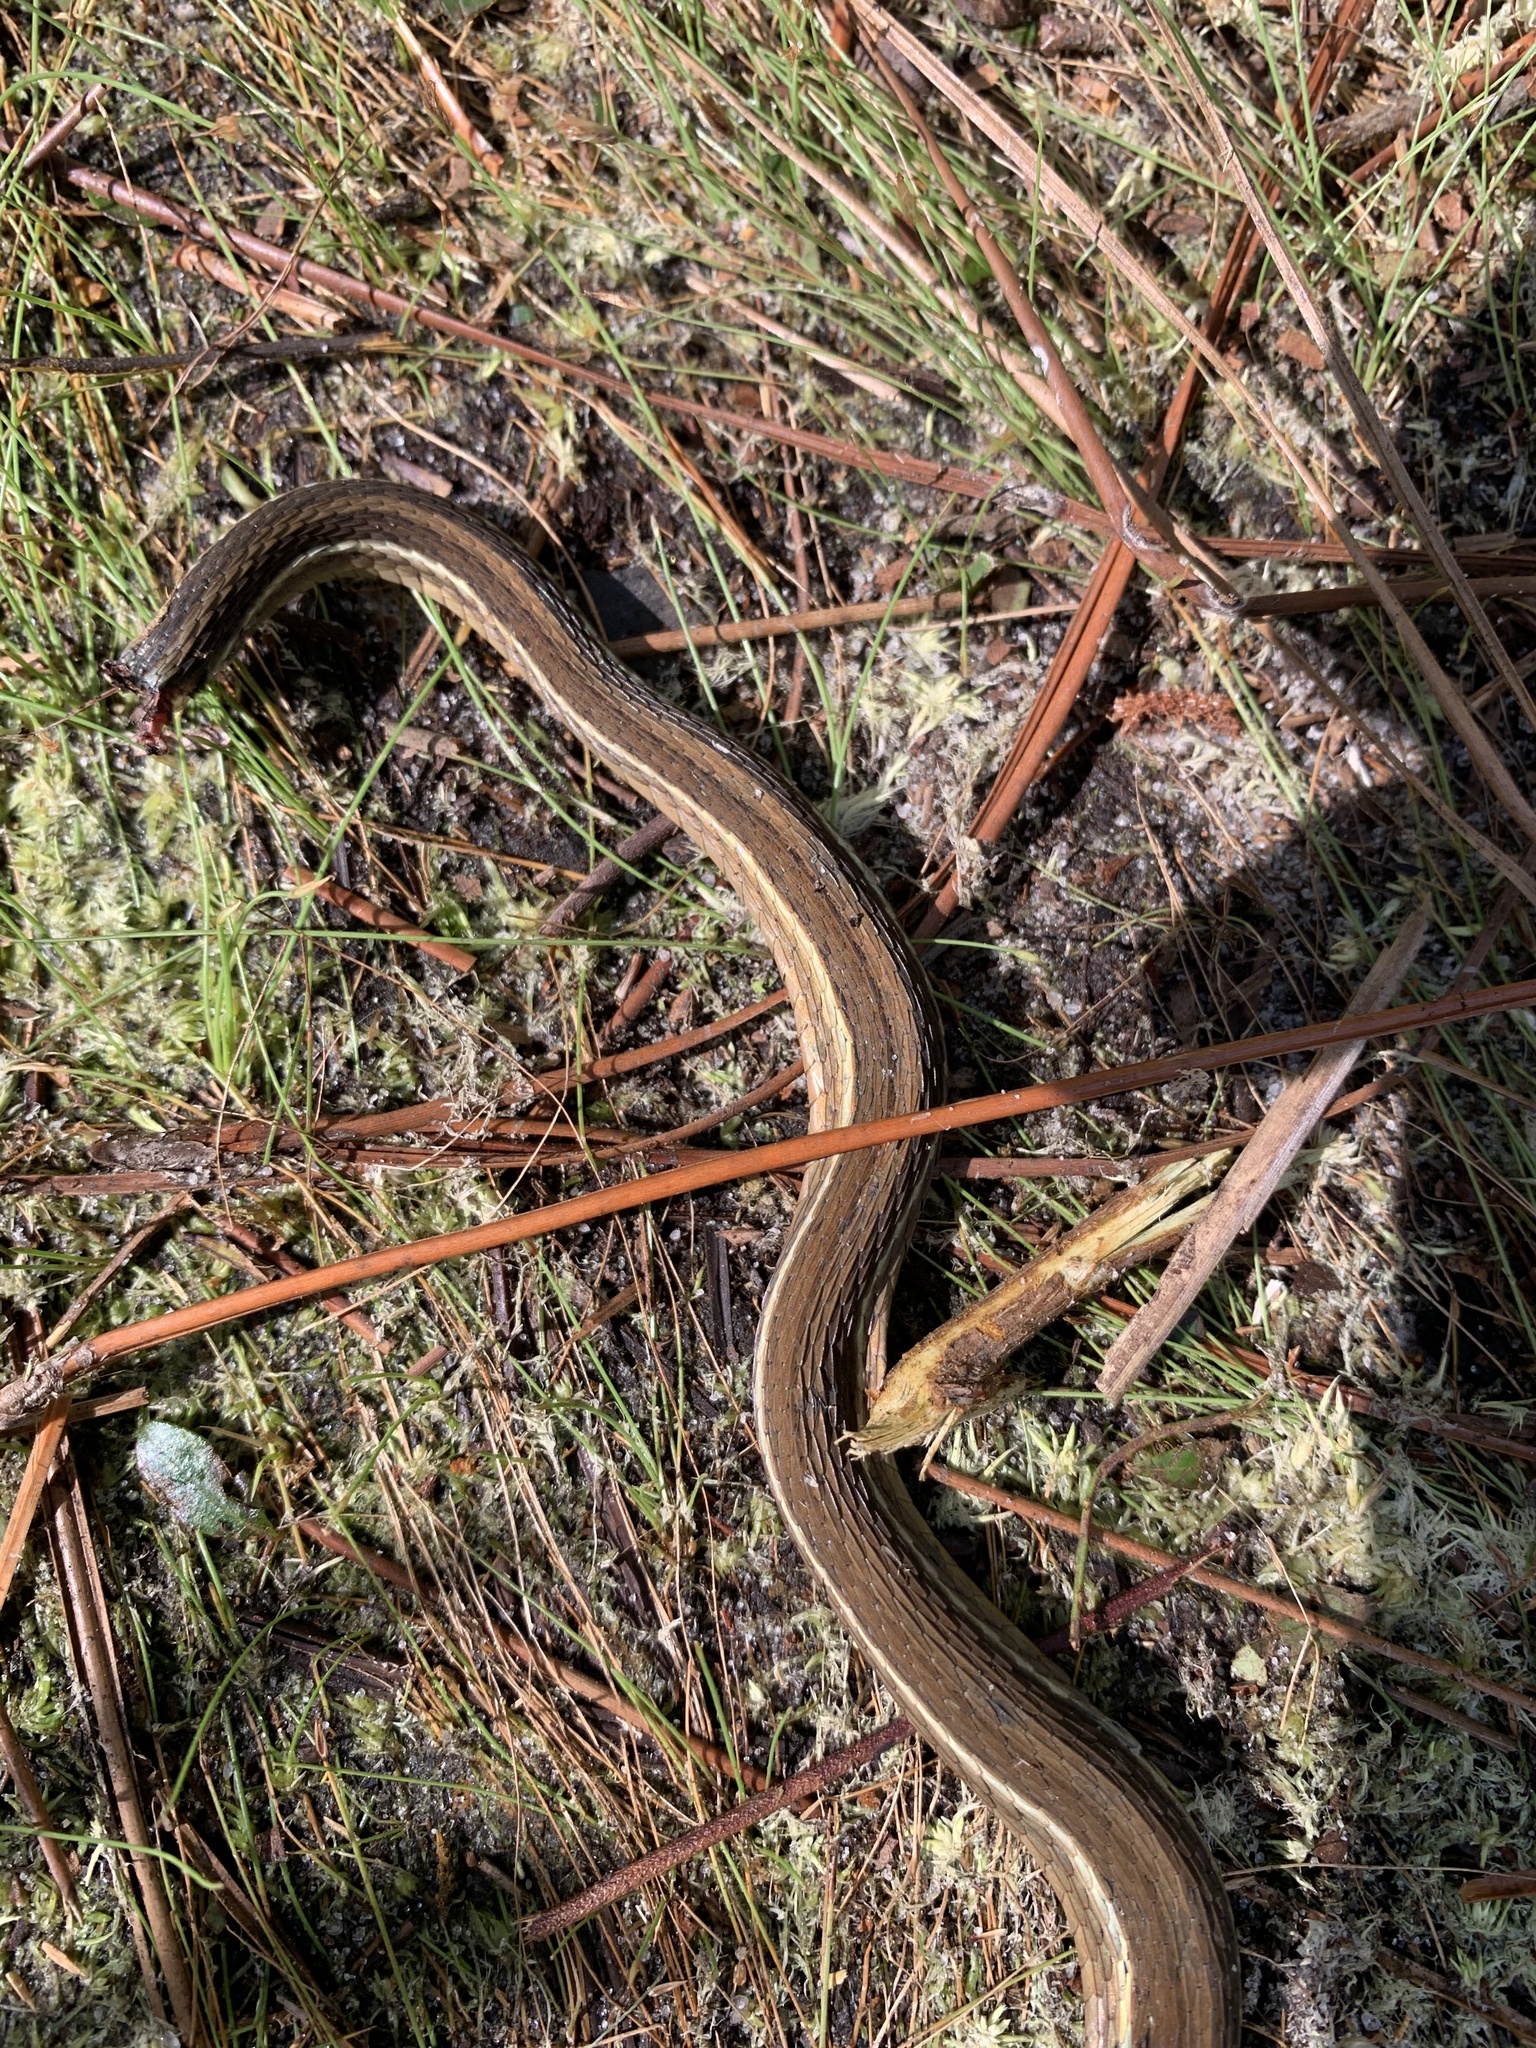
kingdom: Animalia
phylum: Chordata
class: Squamata
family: Colubridae
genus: Thamnophis
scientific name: Thamnophis saurita
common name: Eastern ribbonsnake
